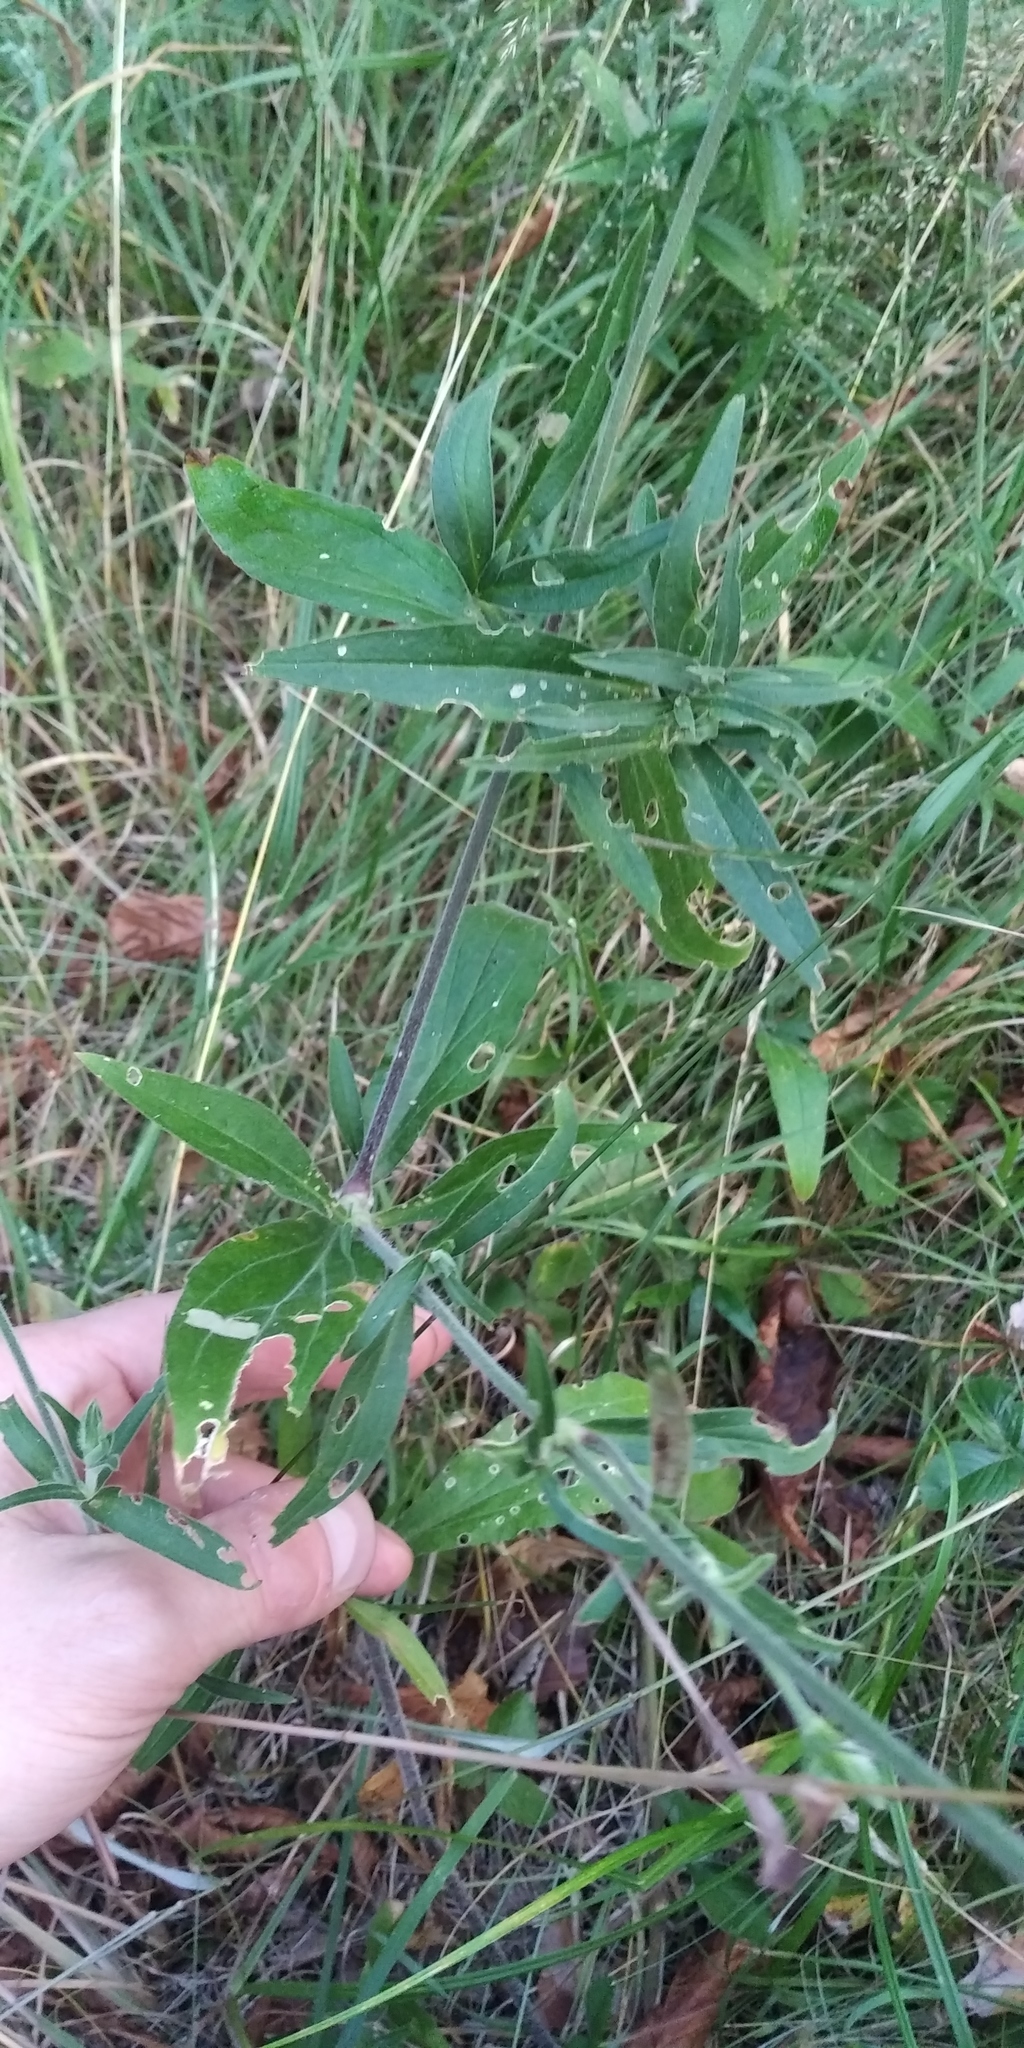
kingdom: Plantae
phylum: Tracheophyta
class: Magnoliopsida
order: Caryophyllales
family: Caryophyllaceae
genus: Silene
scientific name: Silene latifolia
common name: White campion
